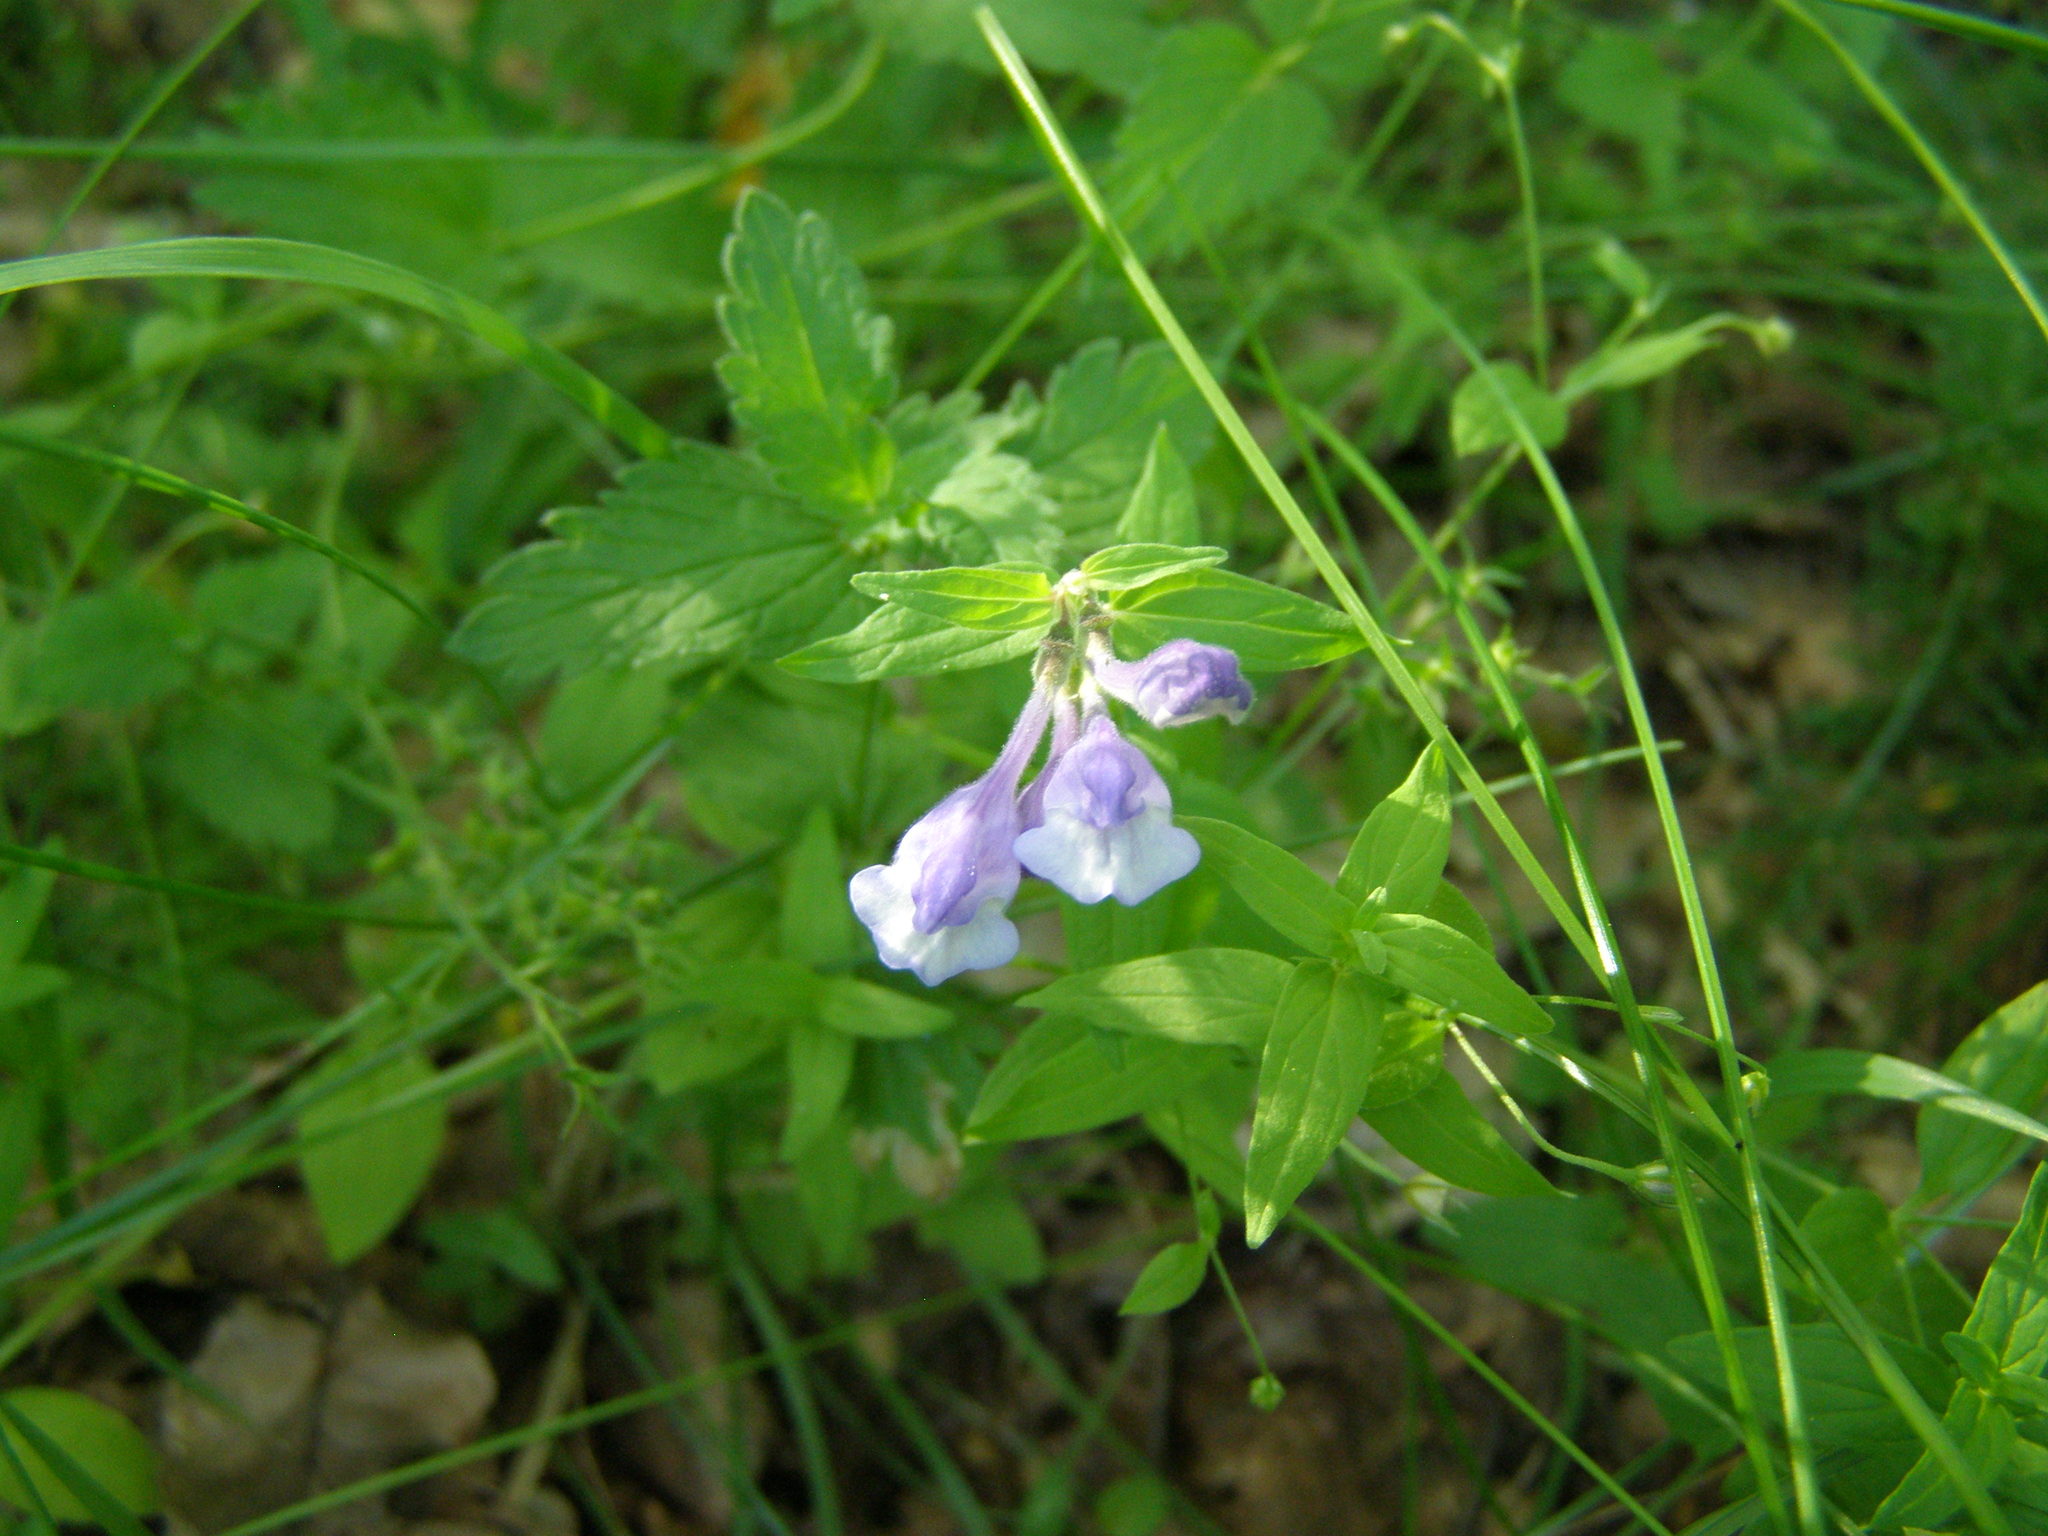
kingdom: Plantae
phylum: Tracheophyta
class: Magnoliopsida
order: Lamiales
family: Lamiaceae
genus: Scutellaria
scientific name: Scutellaria hastifolia
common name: Norfolk skullcap
